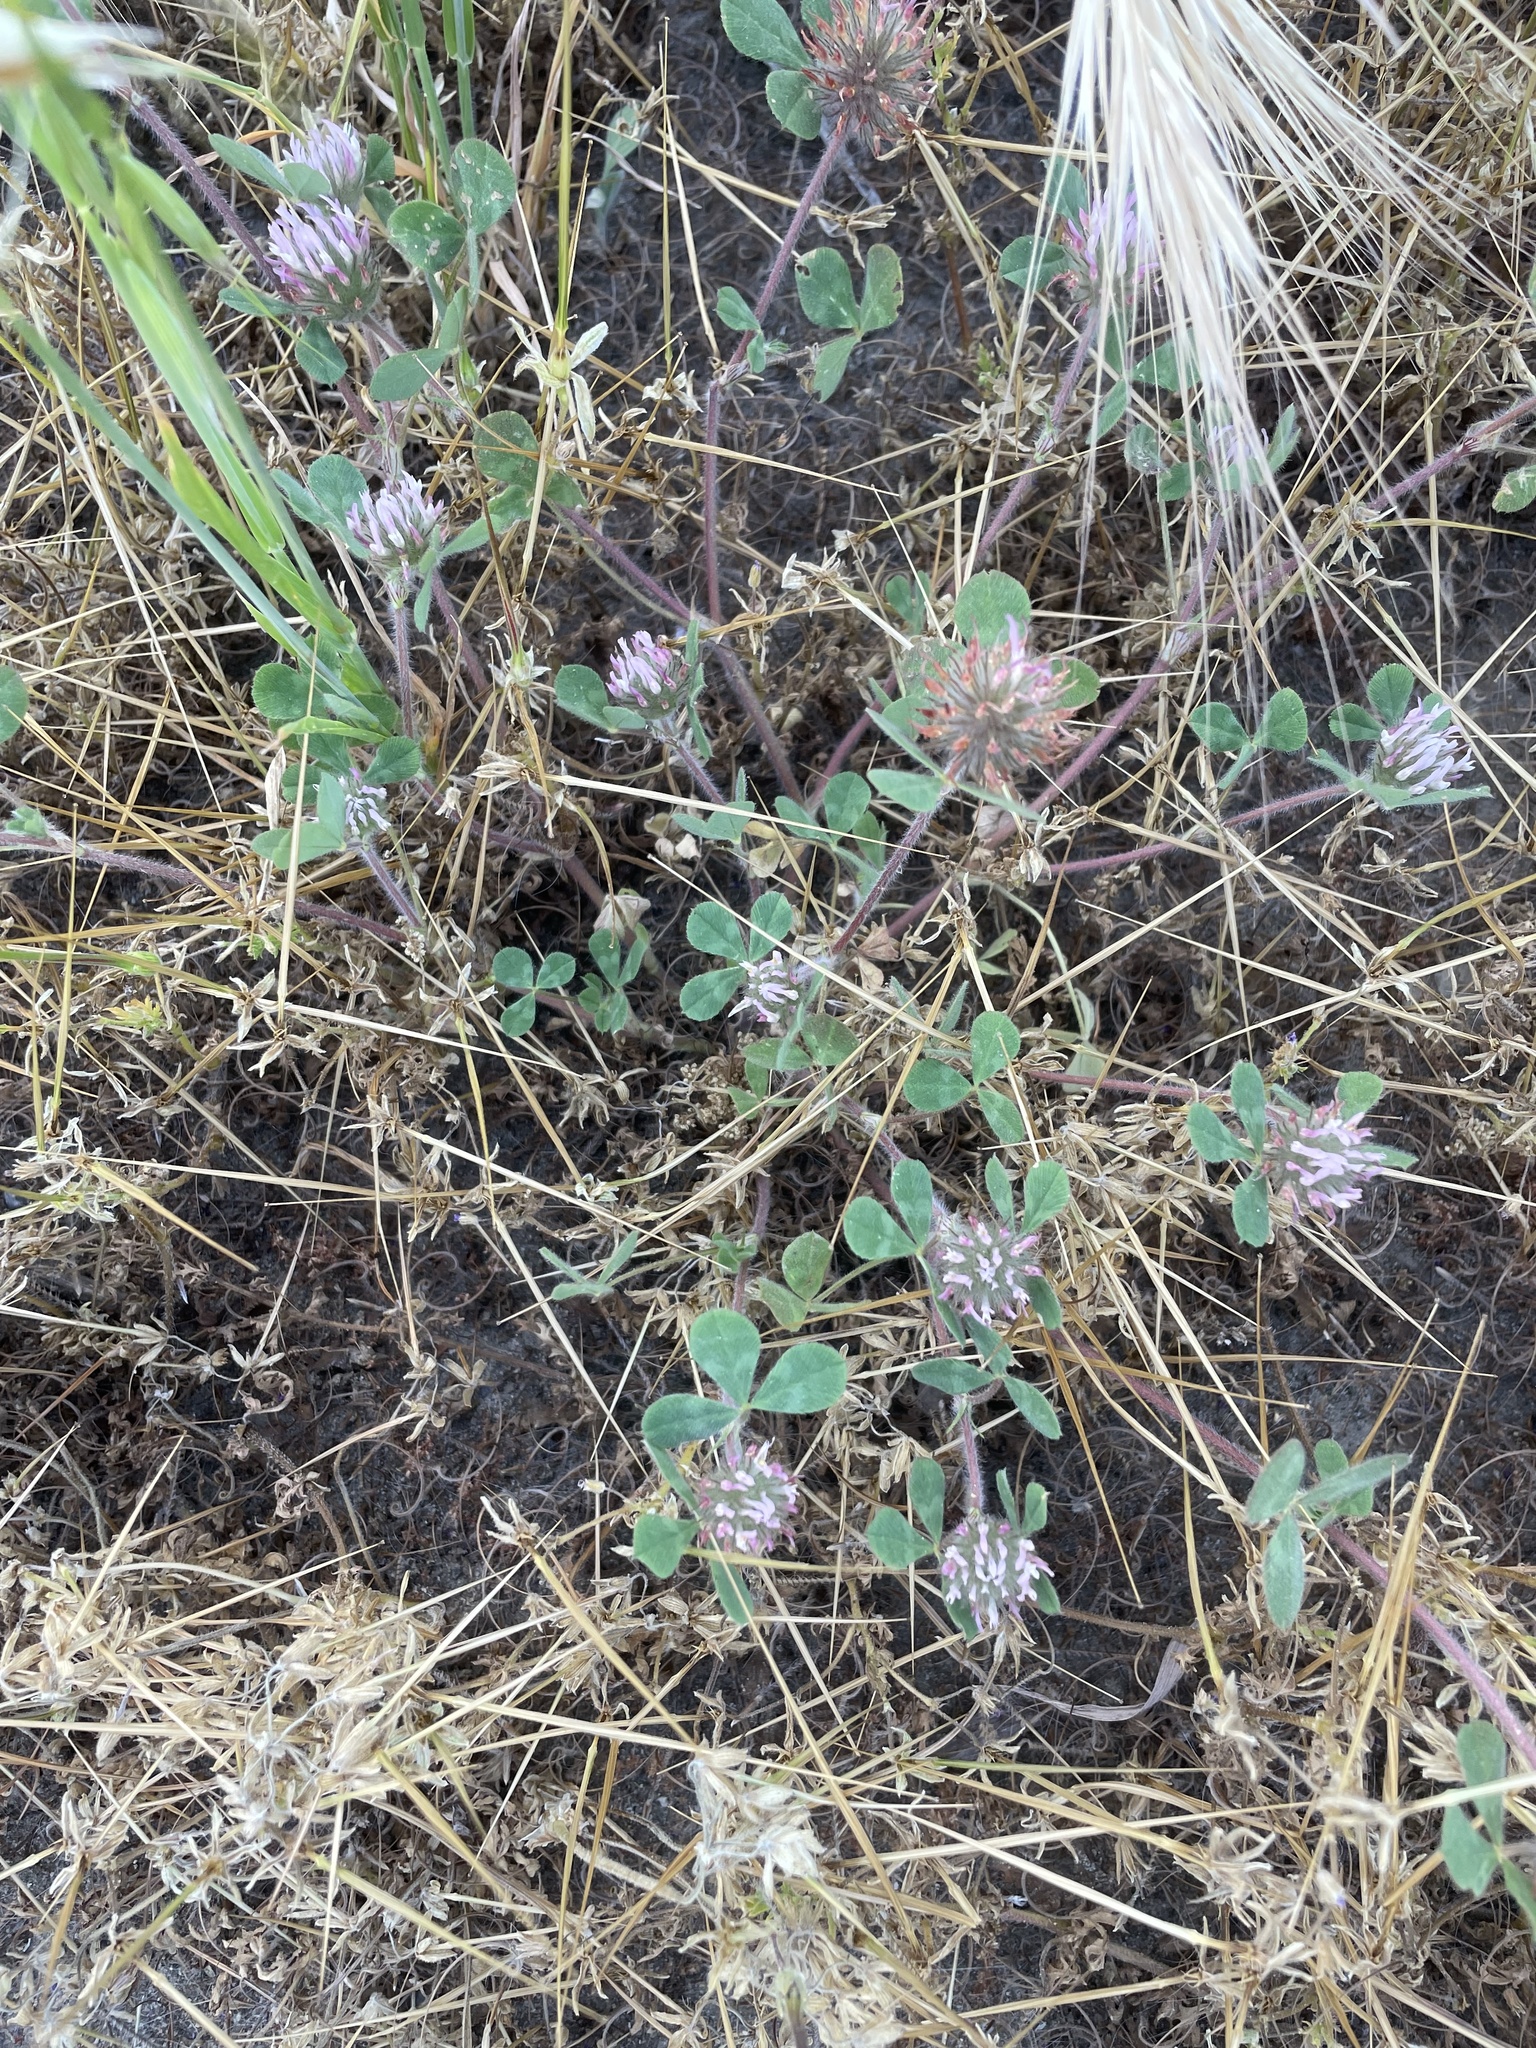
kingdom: Plantae
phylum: Tracheophyta
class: Magnoliopsida
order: Fabales
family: Fabaceae
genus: Trifolium
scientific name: Trifolium hirtum
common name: Rose clover
